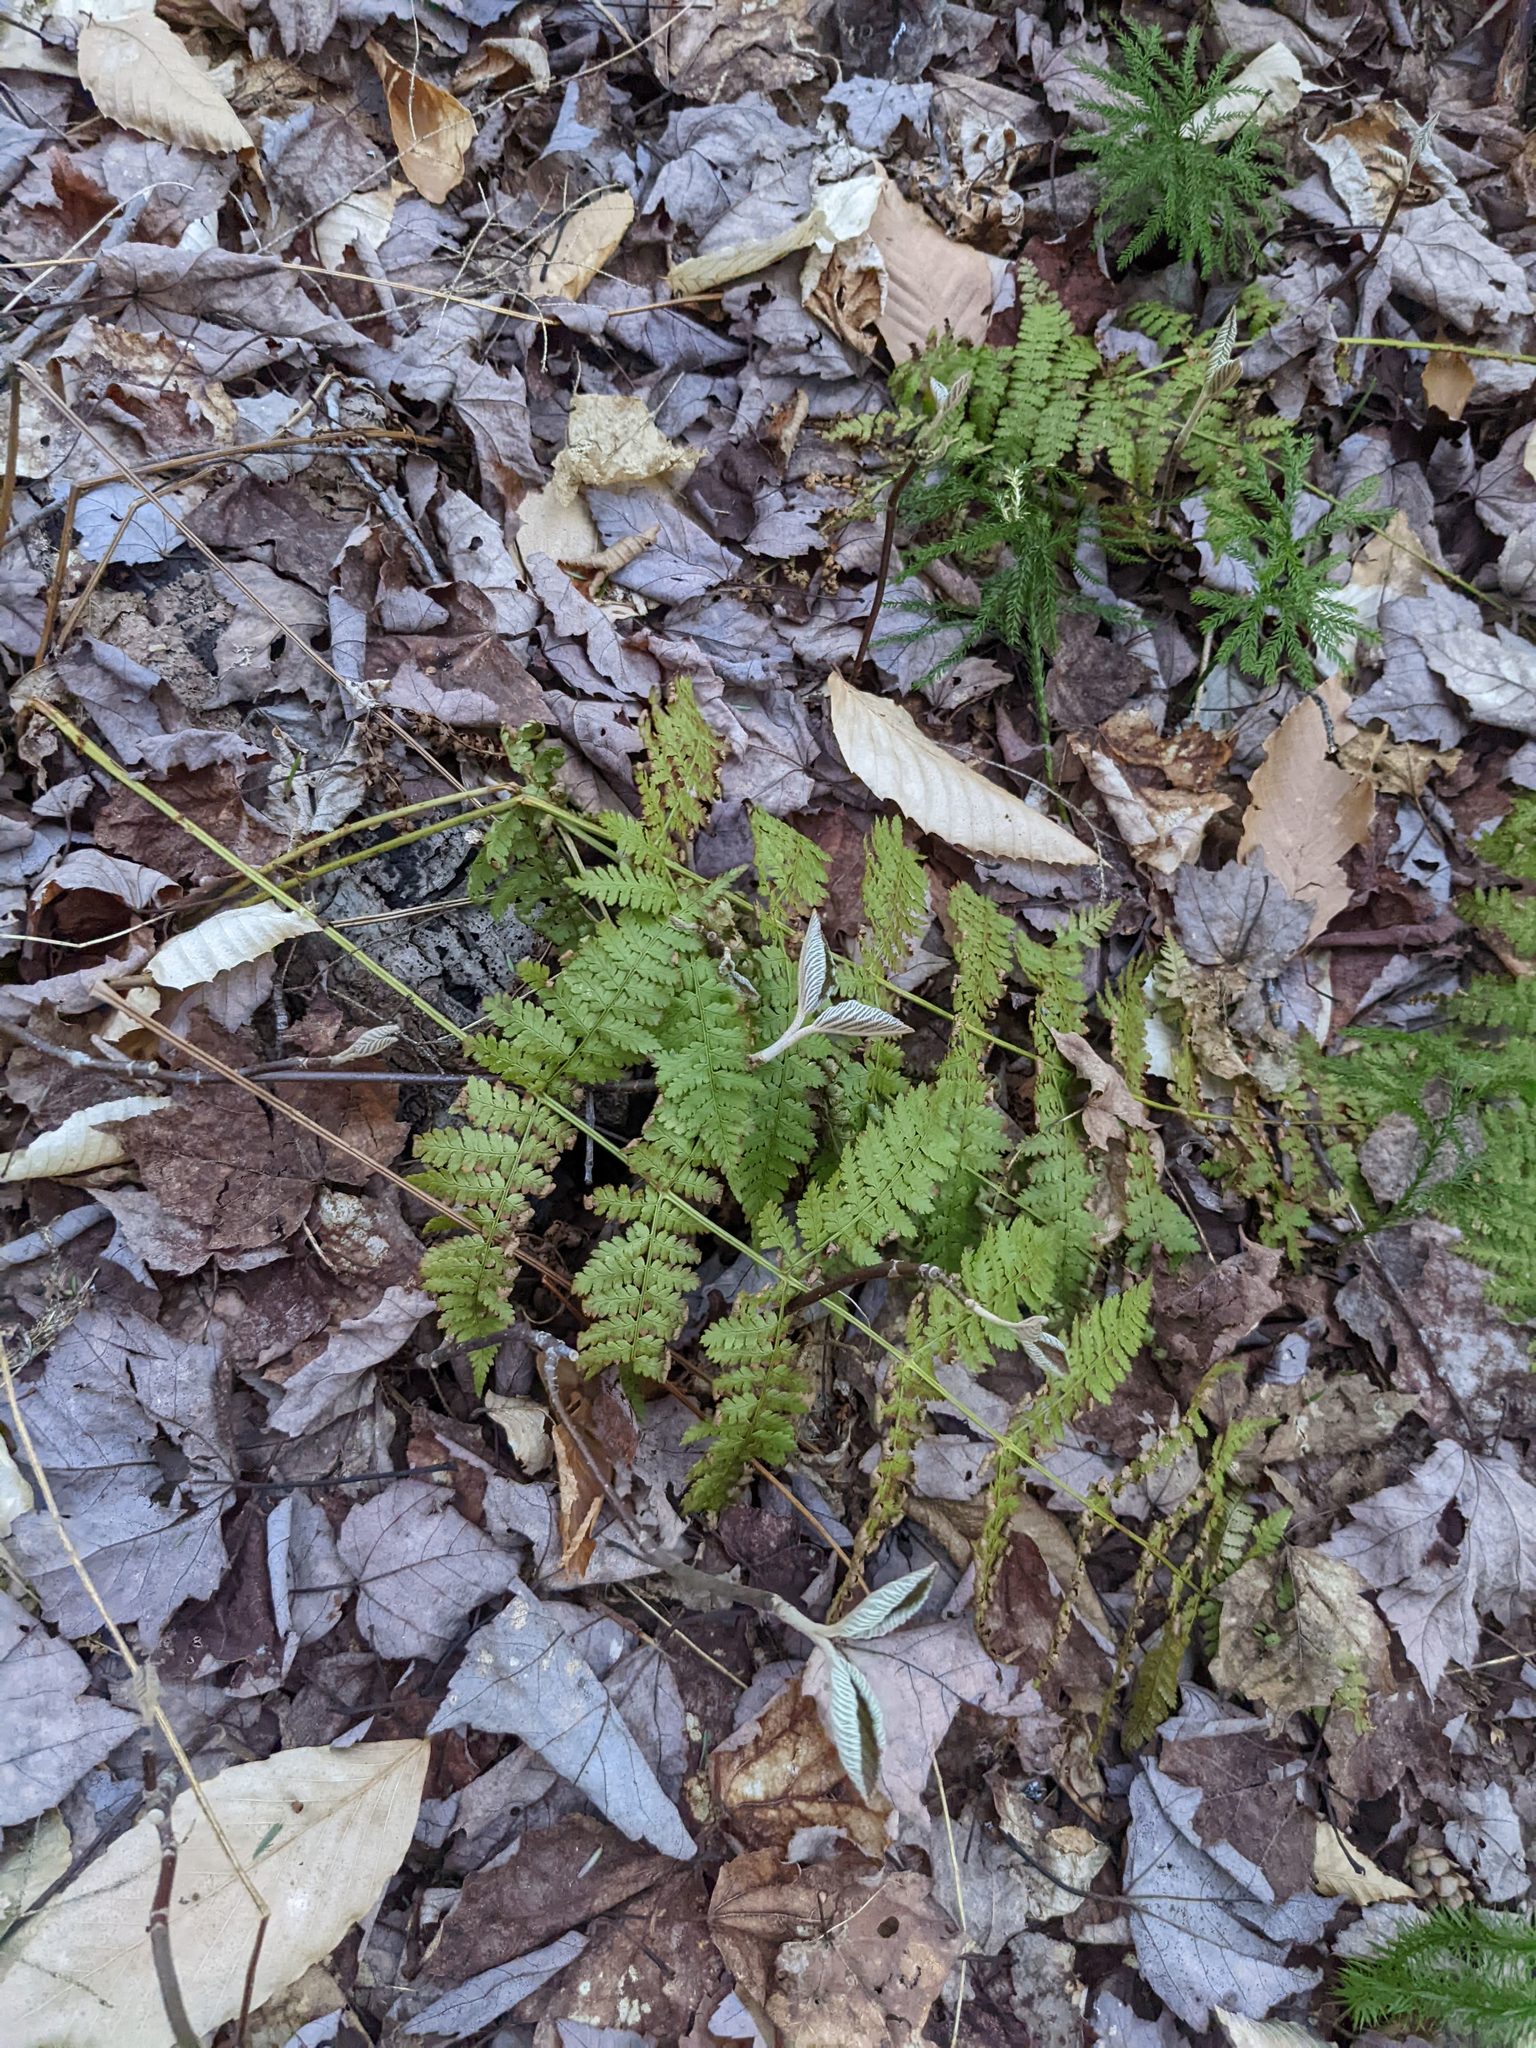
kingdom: Plantae
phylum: Tracheophyta
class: Polypodiopsida
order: Polypodiales
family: Dryopteridaceae
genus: Dryopteris
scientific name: Dryopteris intermedia
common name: Evergreen wood fern
